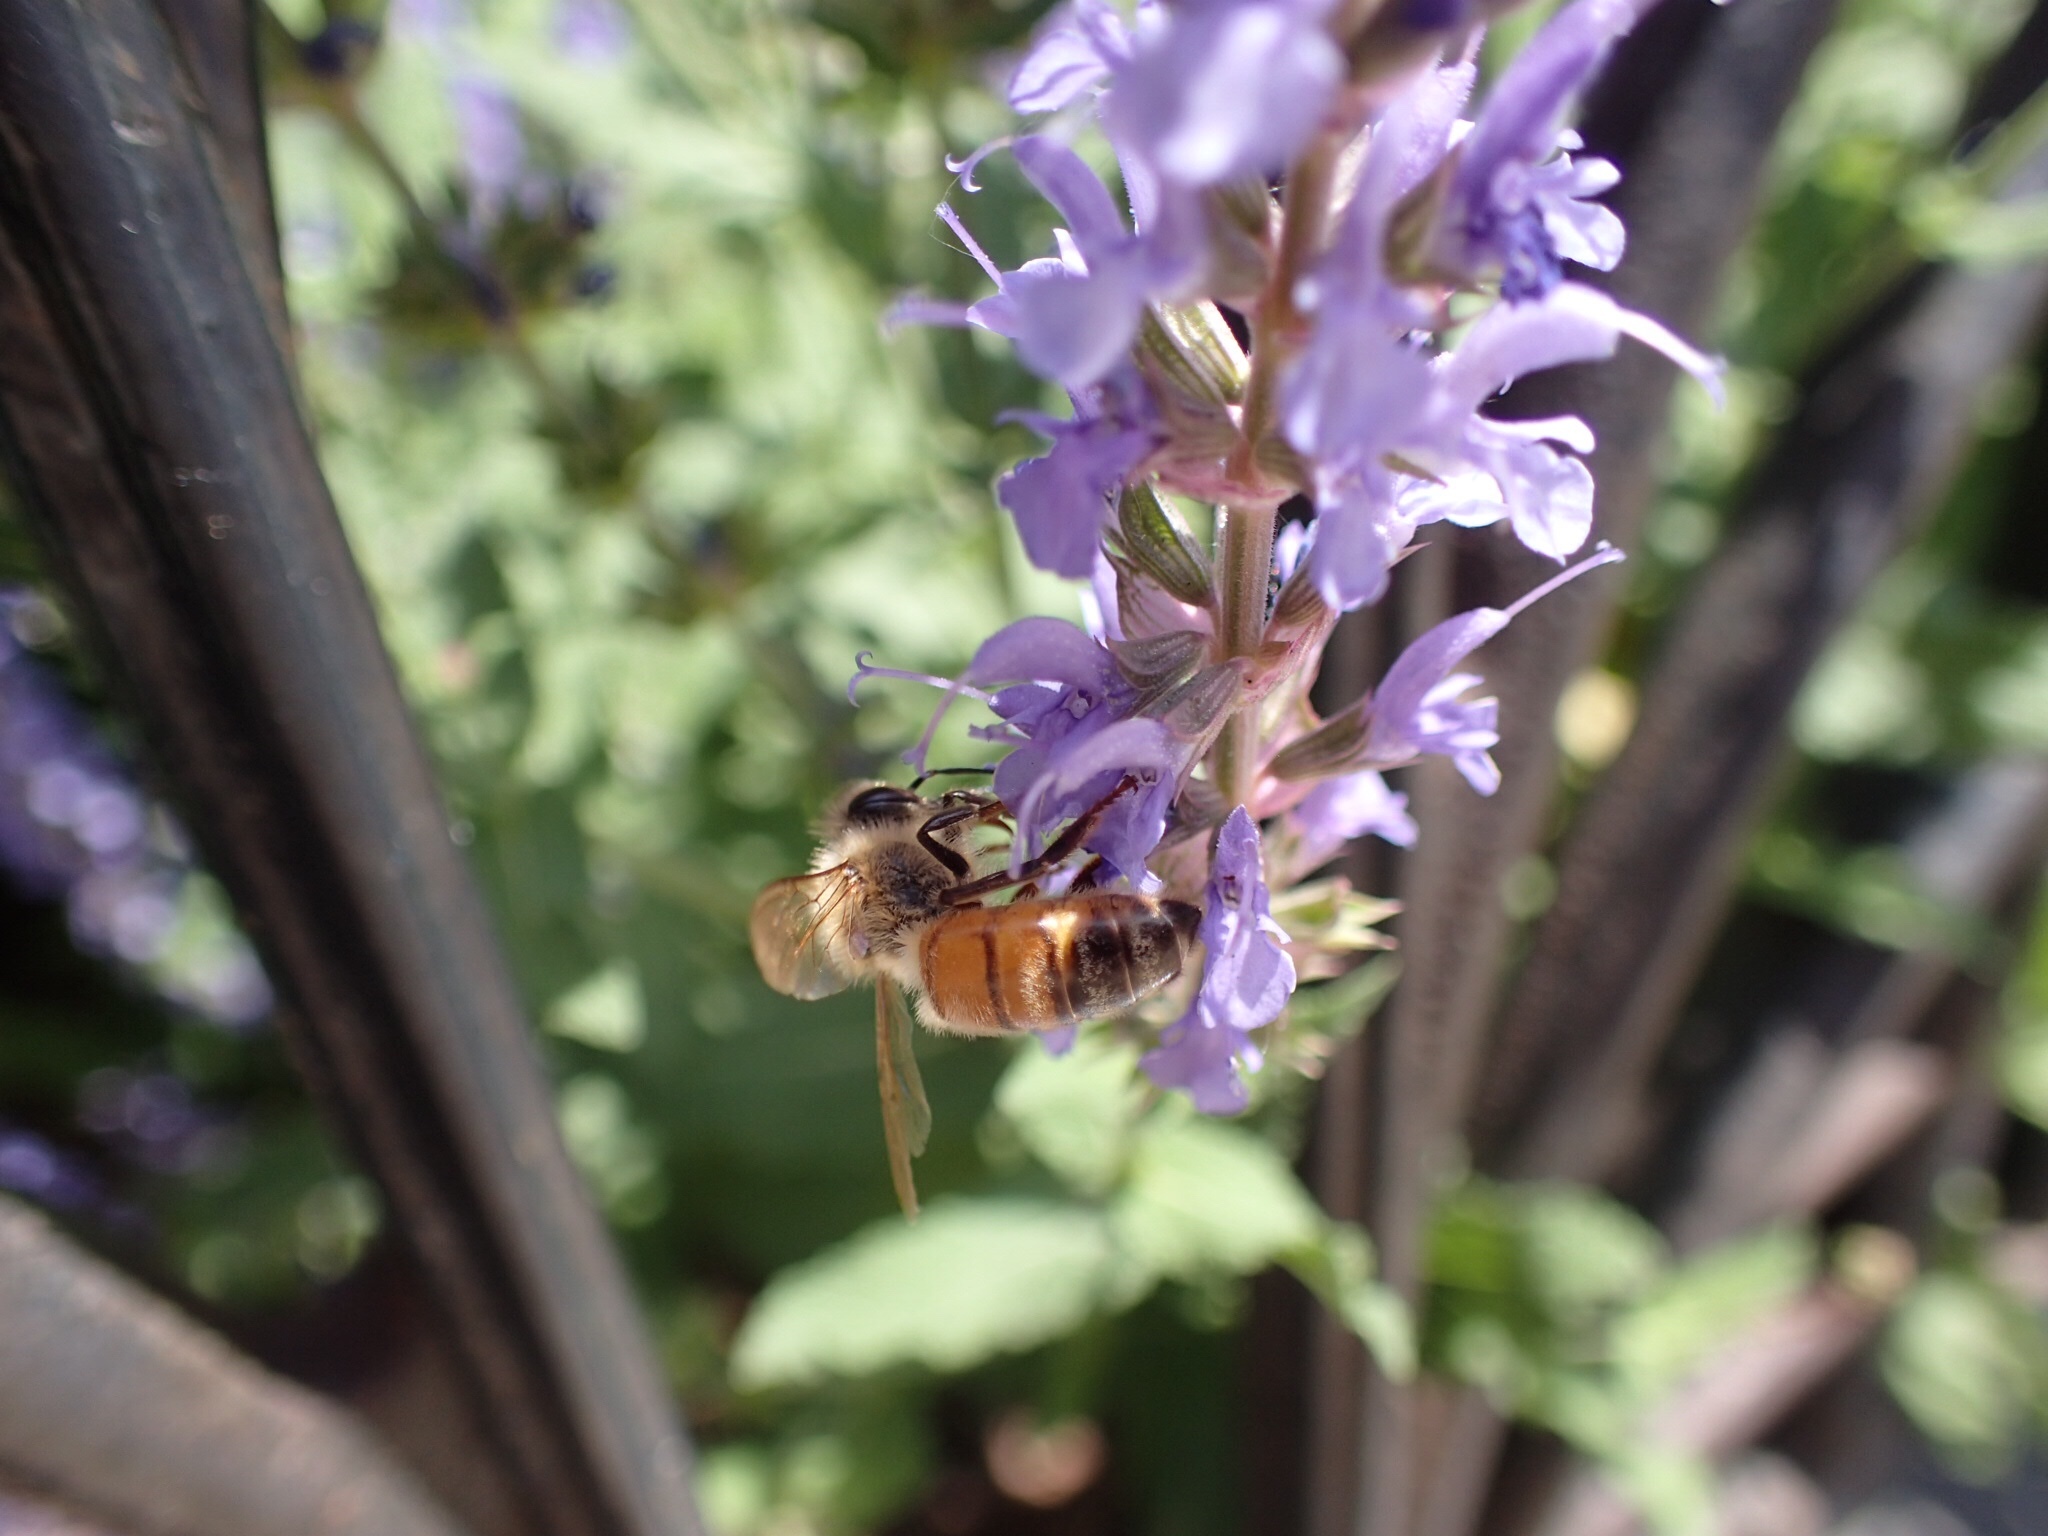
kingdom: Animalia
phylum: Arthropoda
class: Insecta
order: Hymenoptera
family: Apidae
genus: Apis
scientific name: Apis mellifera
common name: Honey bee
